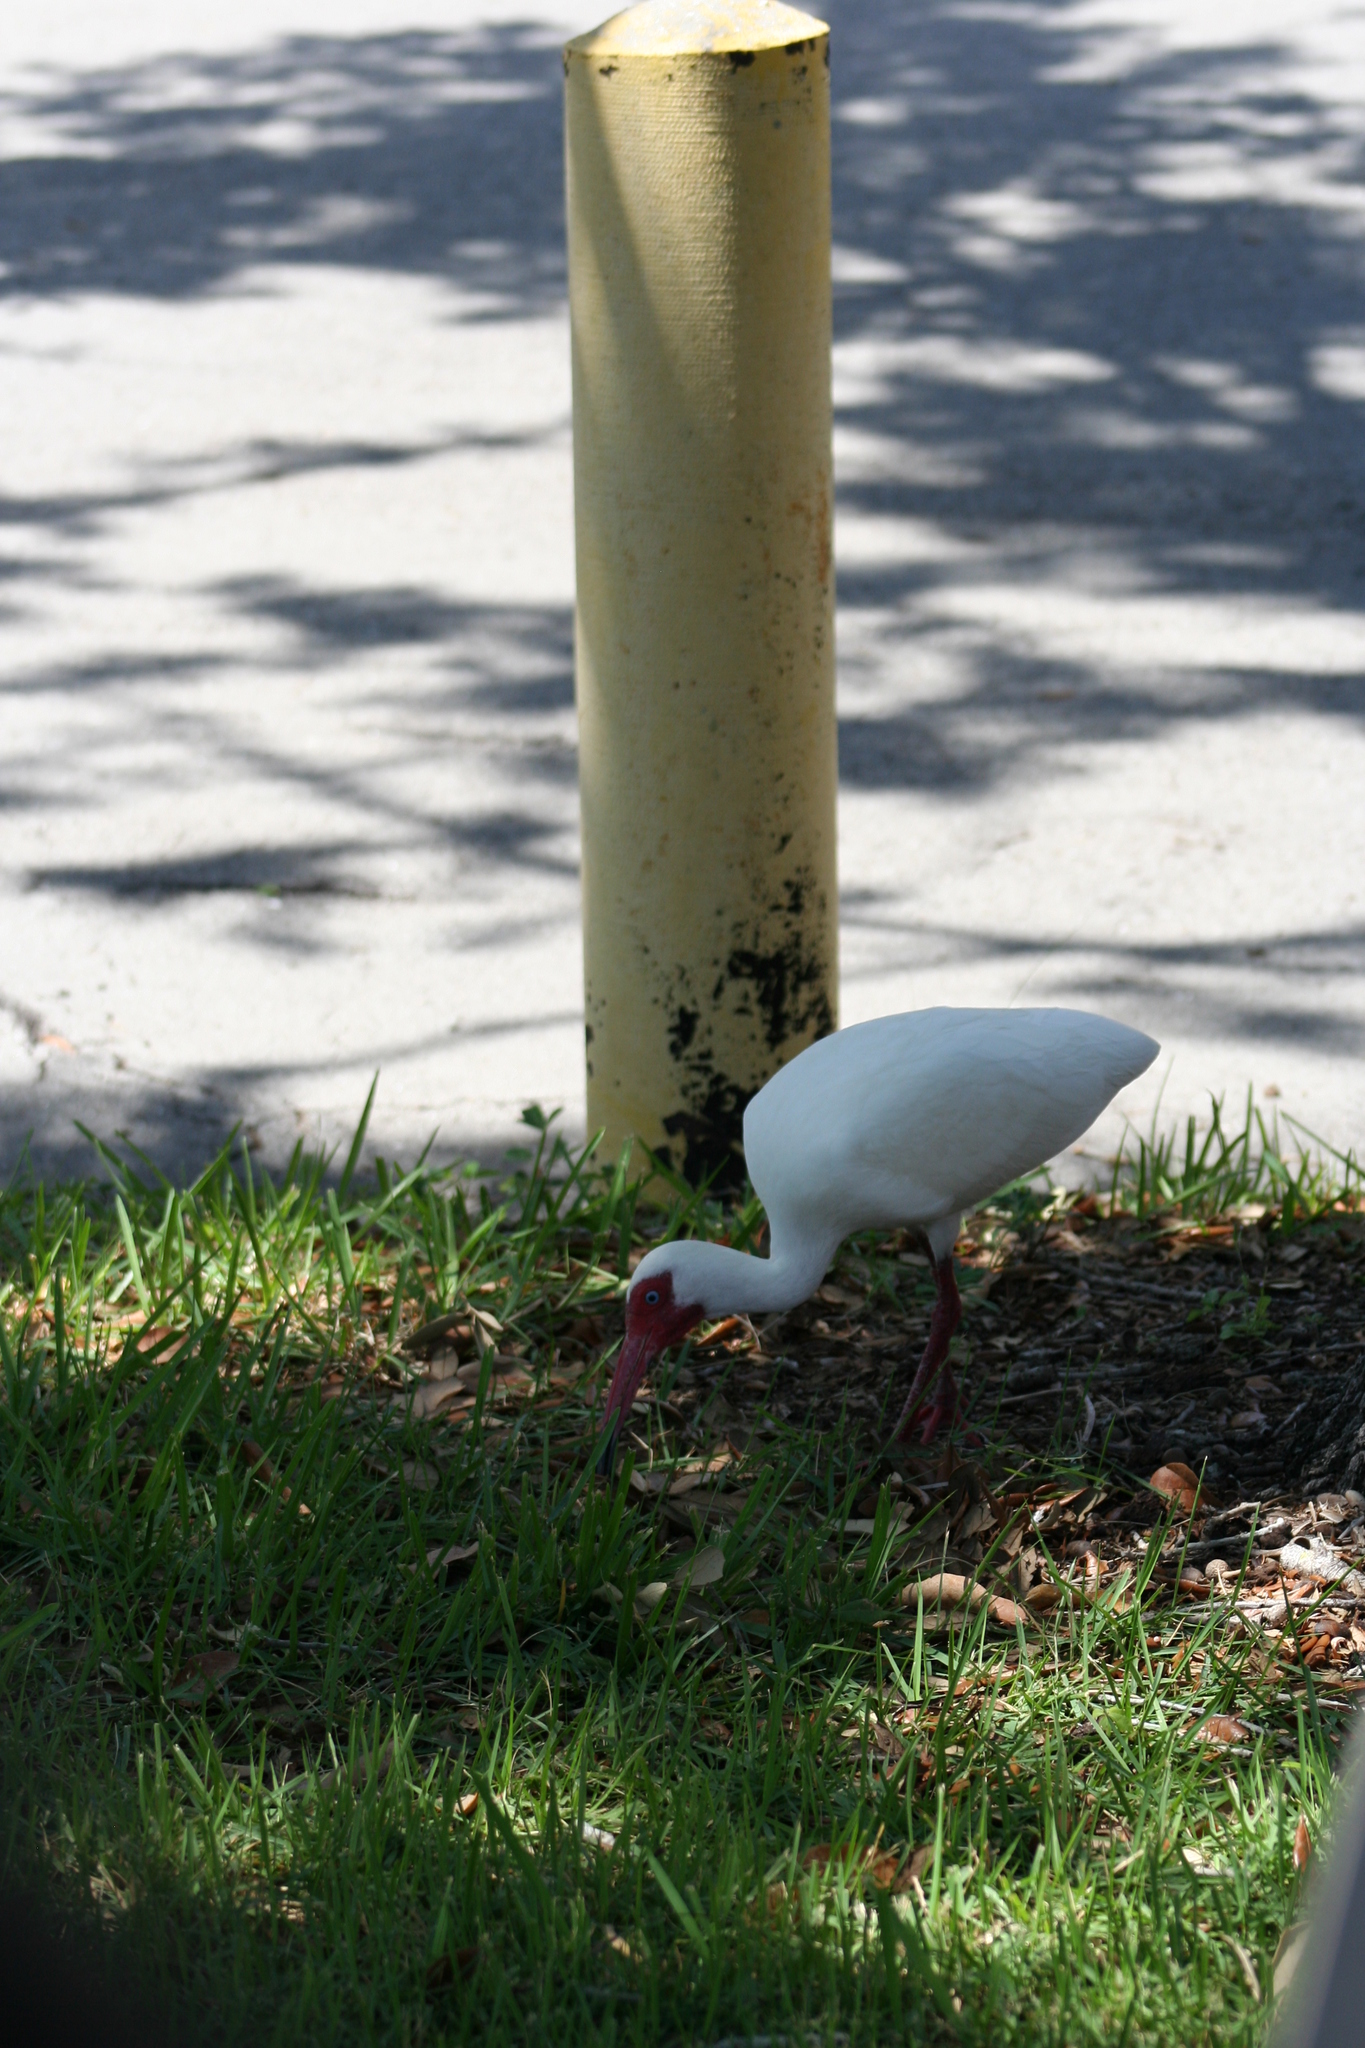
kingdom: Animalia
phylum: Chordata
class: Aves
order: Pelecaniformes
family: Threskiornithidae
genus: Eudocimus
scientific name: Eudocimus albus
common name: White ibis
